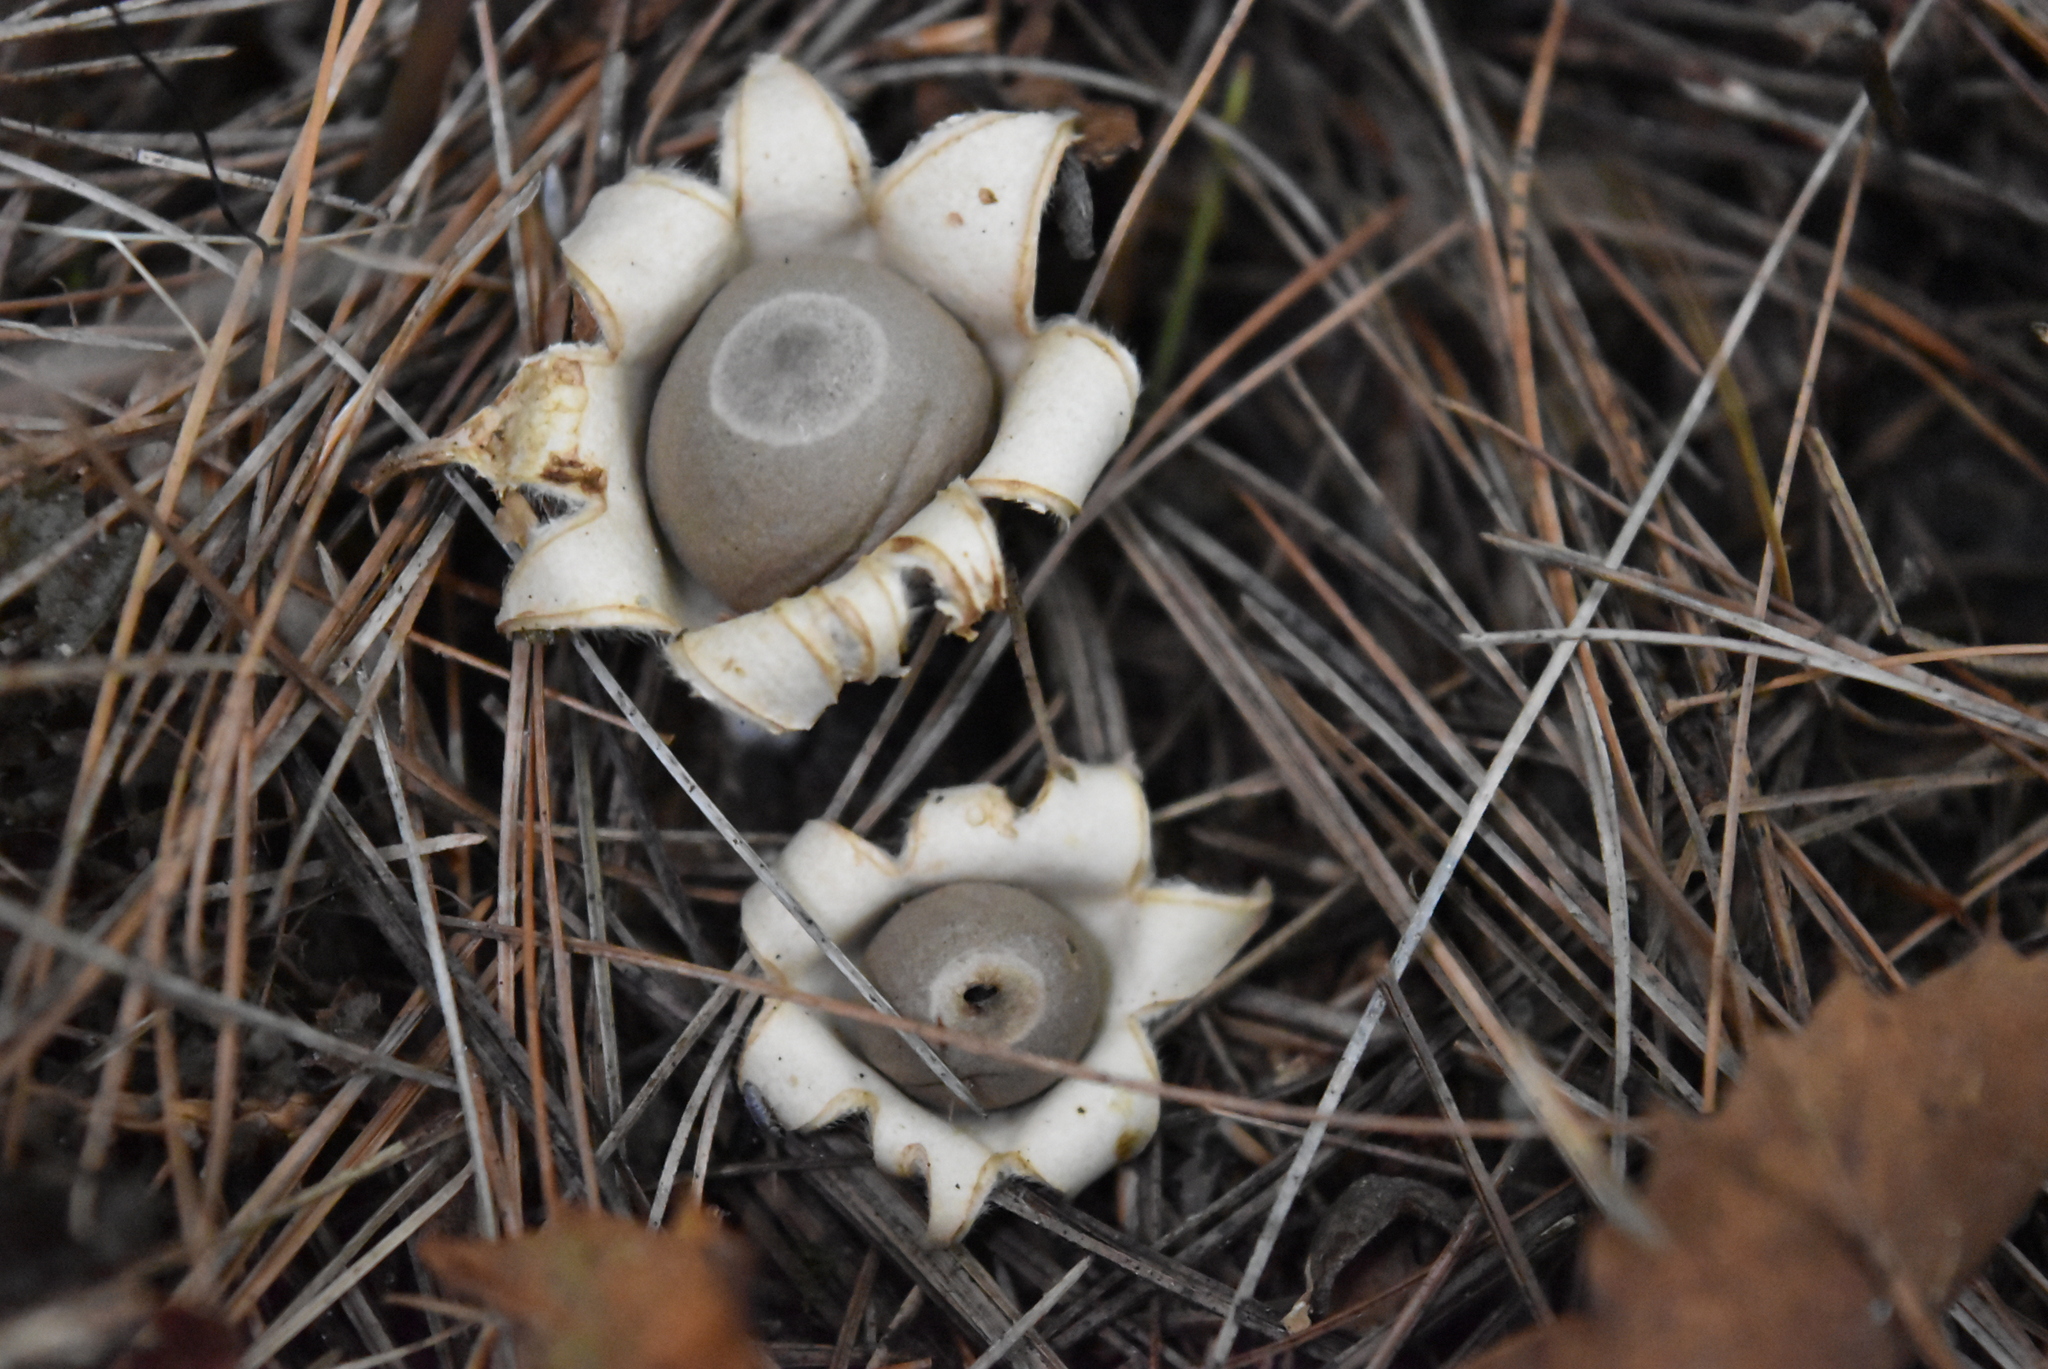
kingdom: Fungi
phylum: Basidiomycota
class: Agaricomycetes
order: Geastrales
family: Geastraceae
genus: Geastrum
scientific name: Geastrum saccatum
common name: Rounded earthstar
